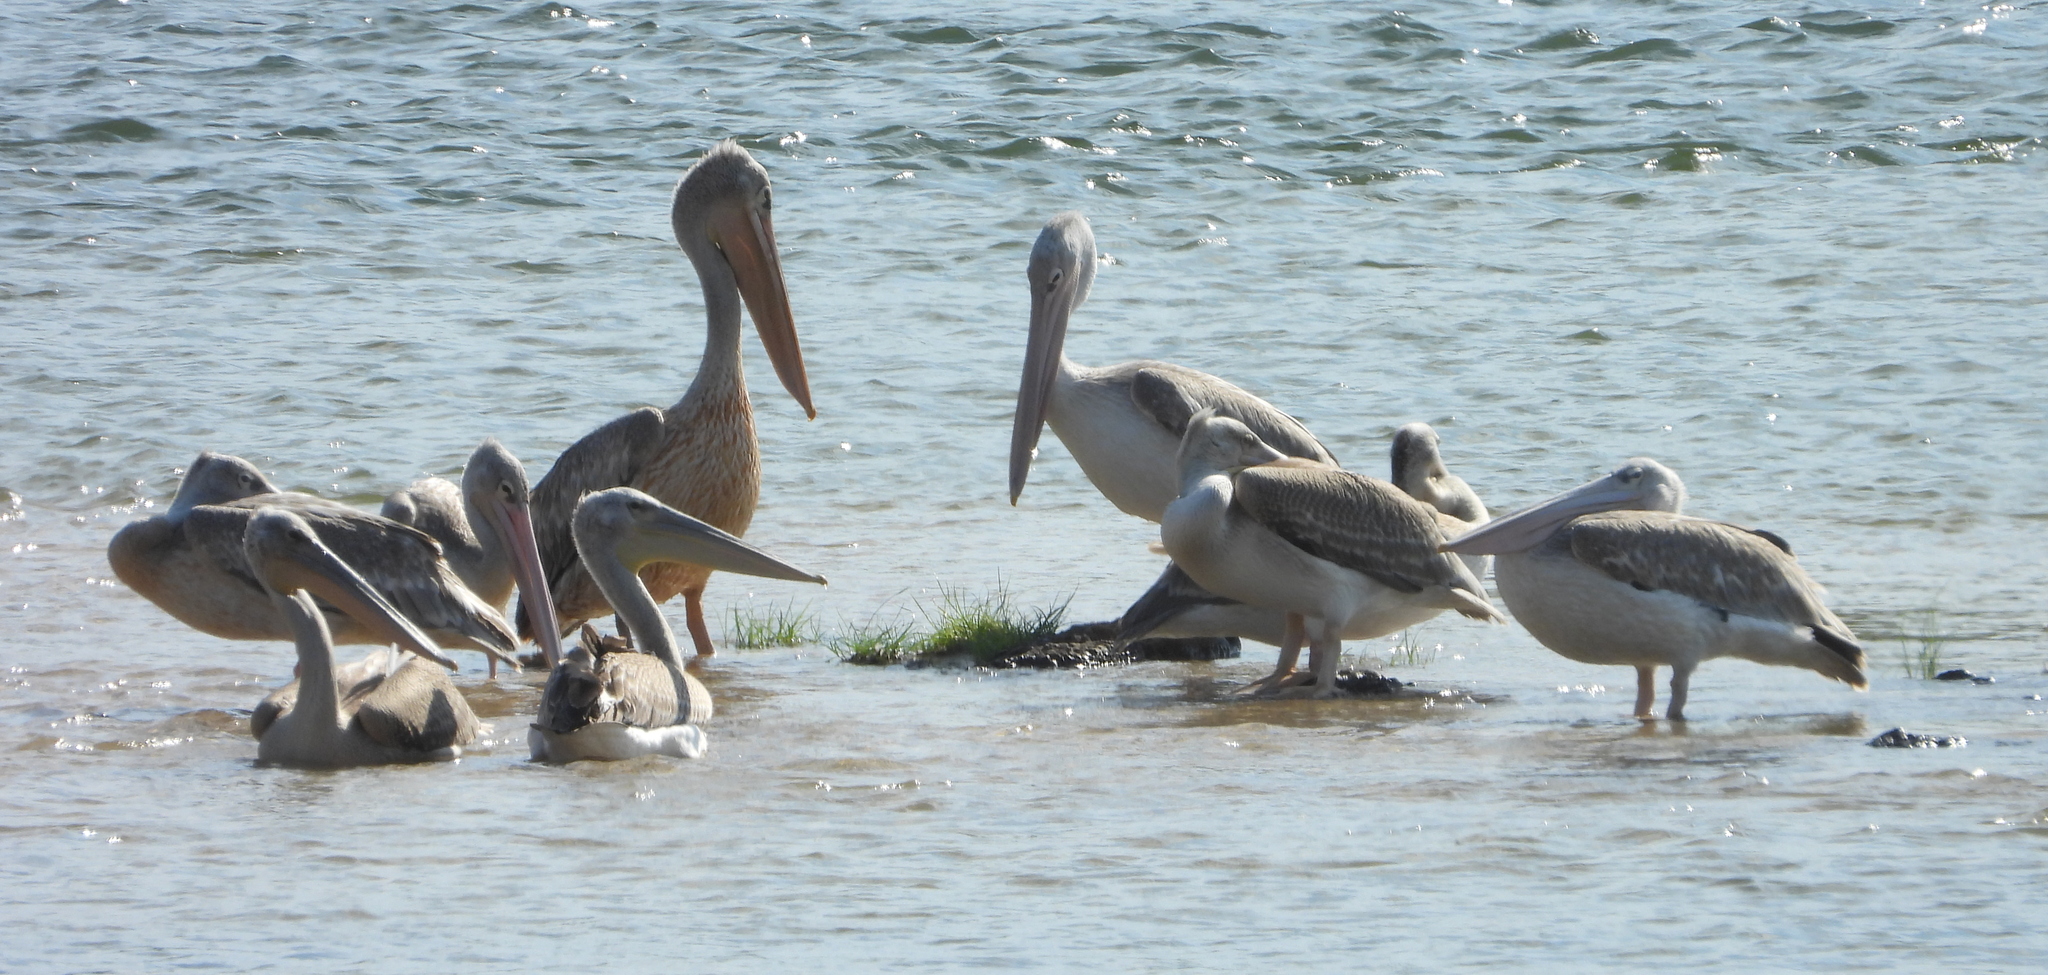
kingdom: Animalia
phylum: Chordata
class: Aves
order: Pelecaniformes
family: Pelecanidae
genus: Pelecanus
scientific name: Pelecanus rufescens
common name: Pink-backed pelican
